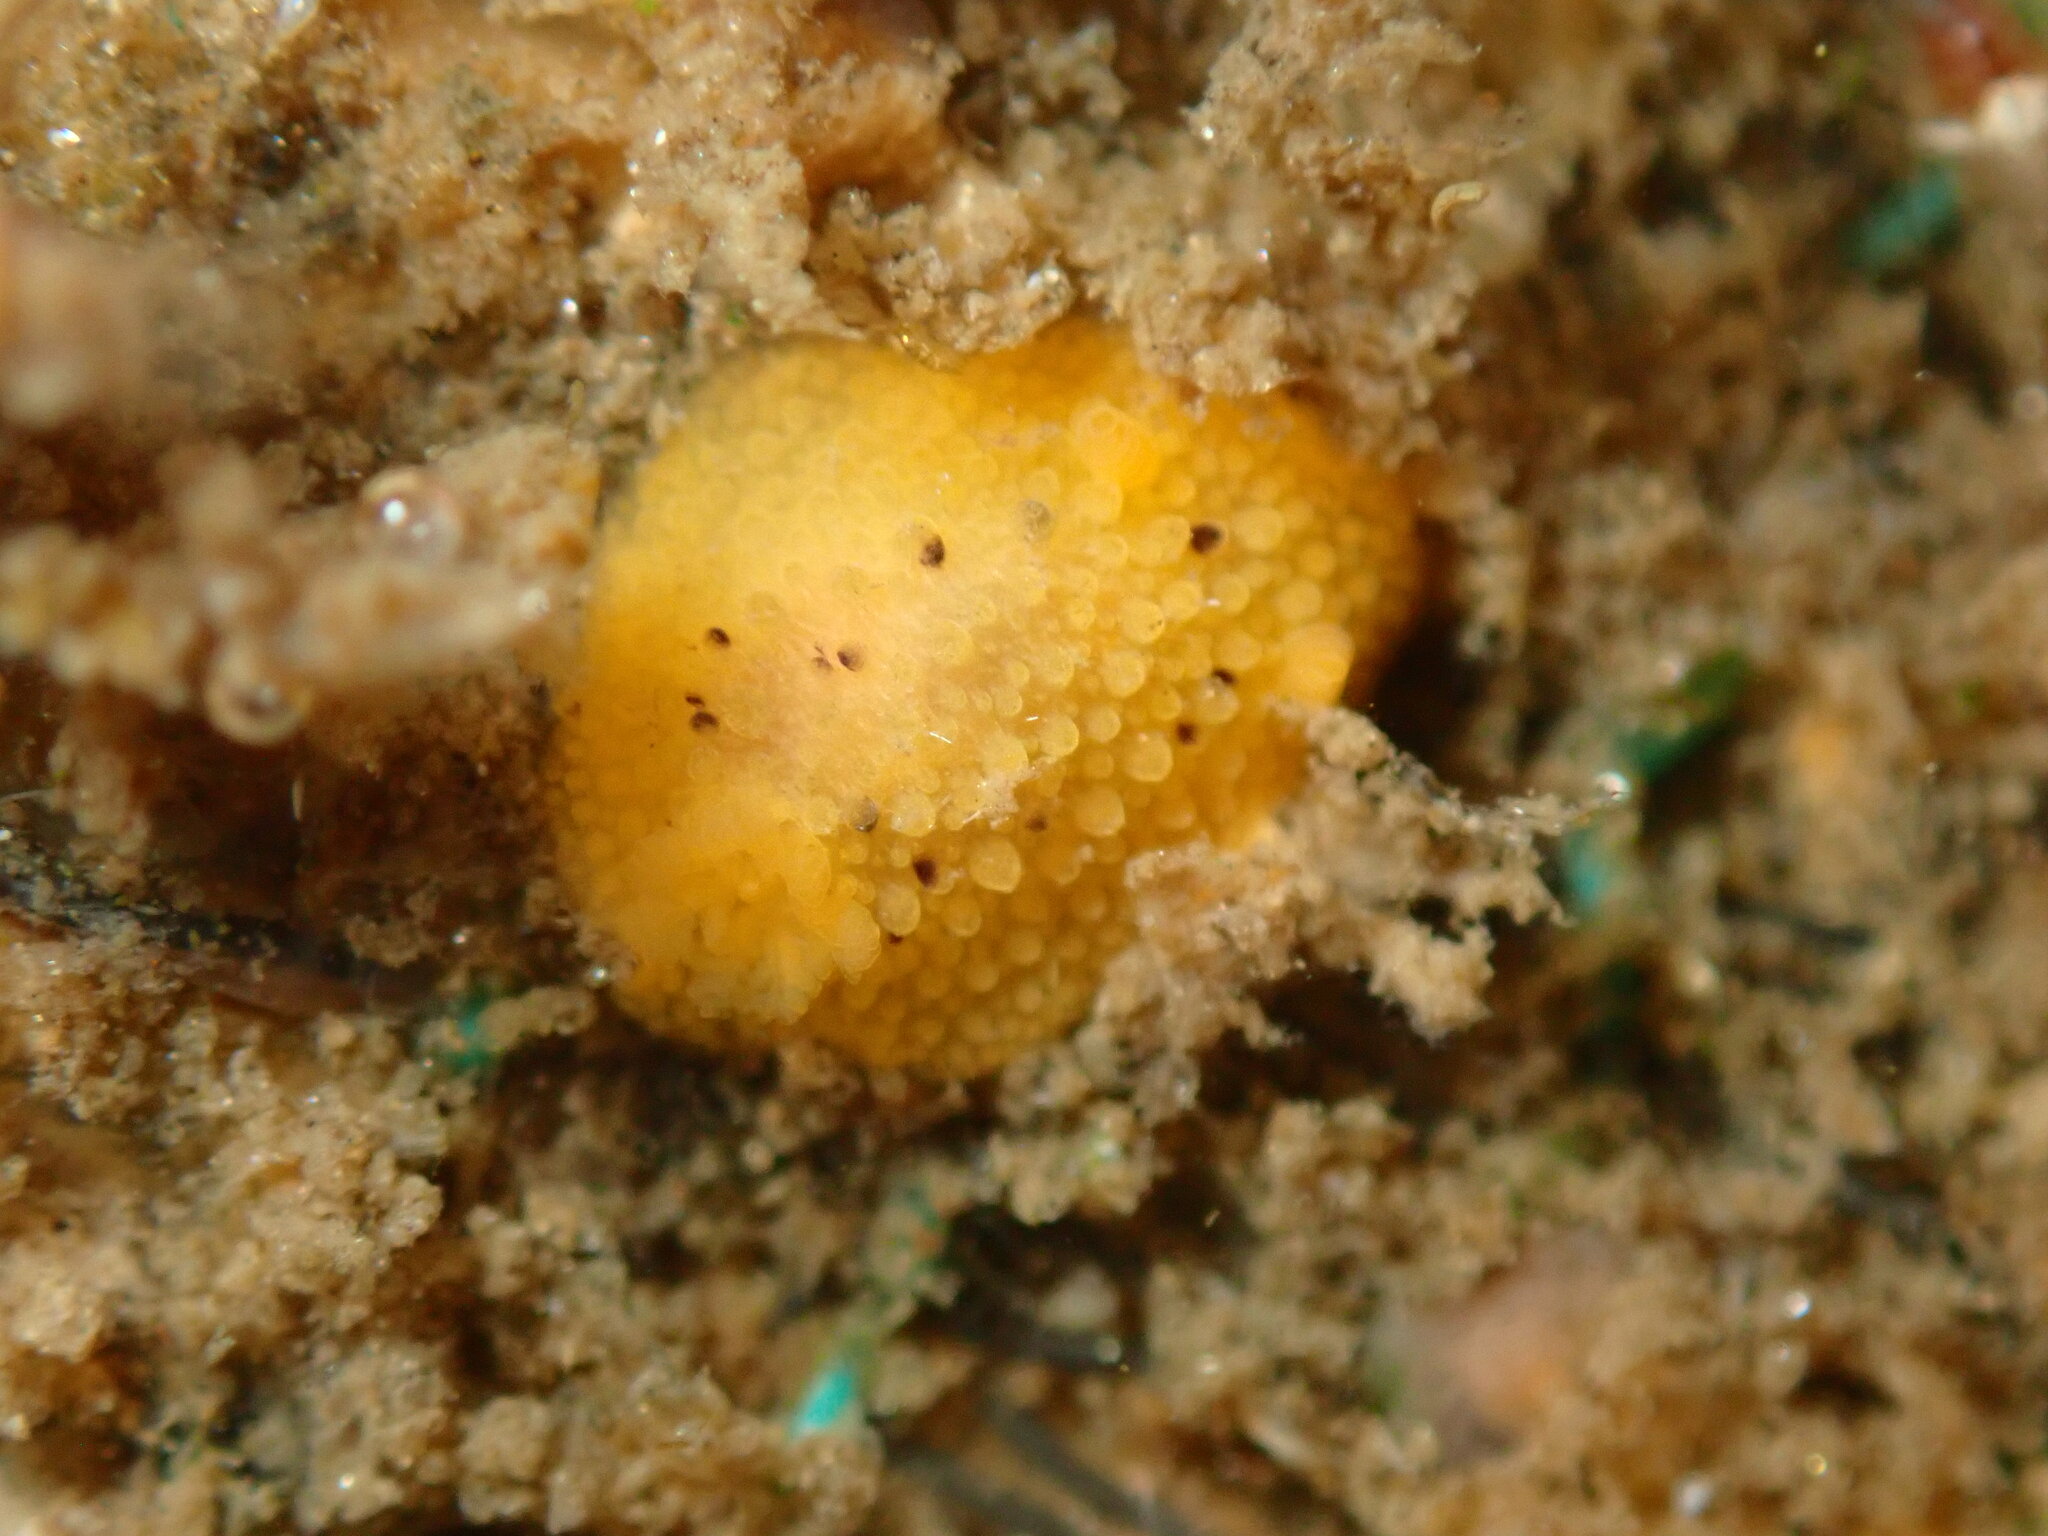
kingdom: Animalia
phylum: Mollusca
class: Gastropoda
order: Nudibranchia
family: Dorididae
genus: Doris
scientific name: Doris montereyensis
